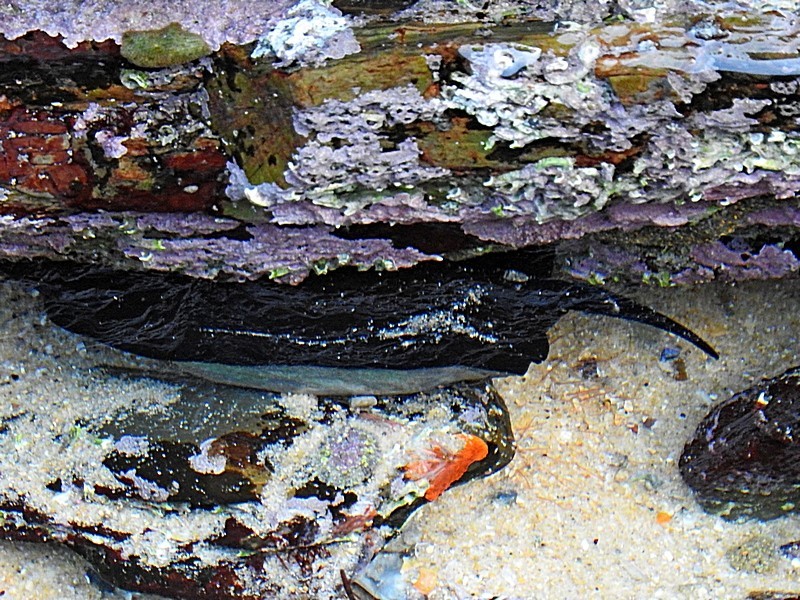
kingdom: Animalia
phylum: Mollusca
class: Gastropoda
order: Lepetellida
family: Fissurellidae
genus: Scutus
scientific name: Scutus antipodes
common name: Duckbill shell
